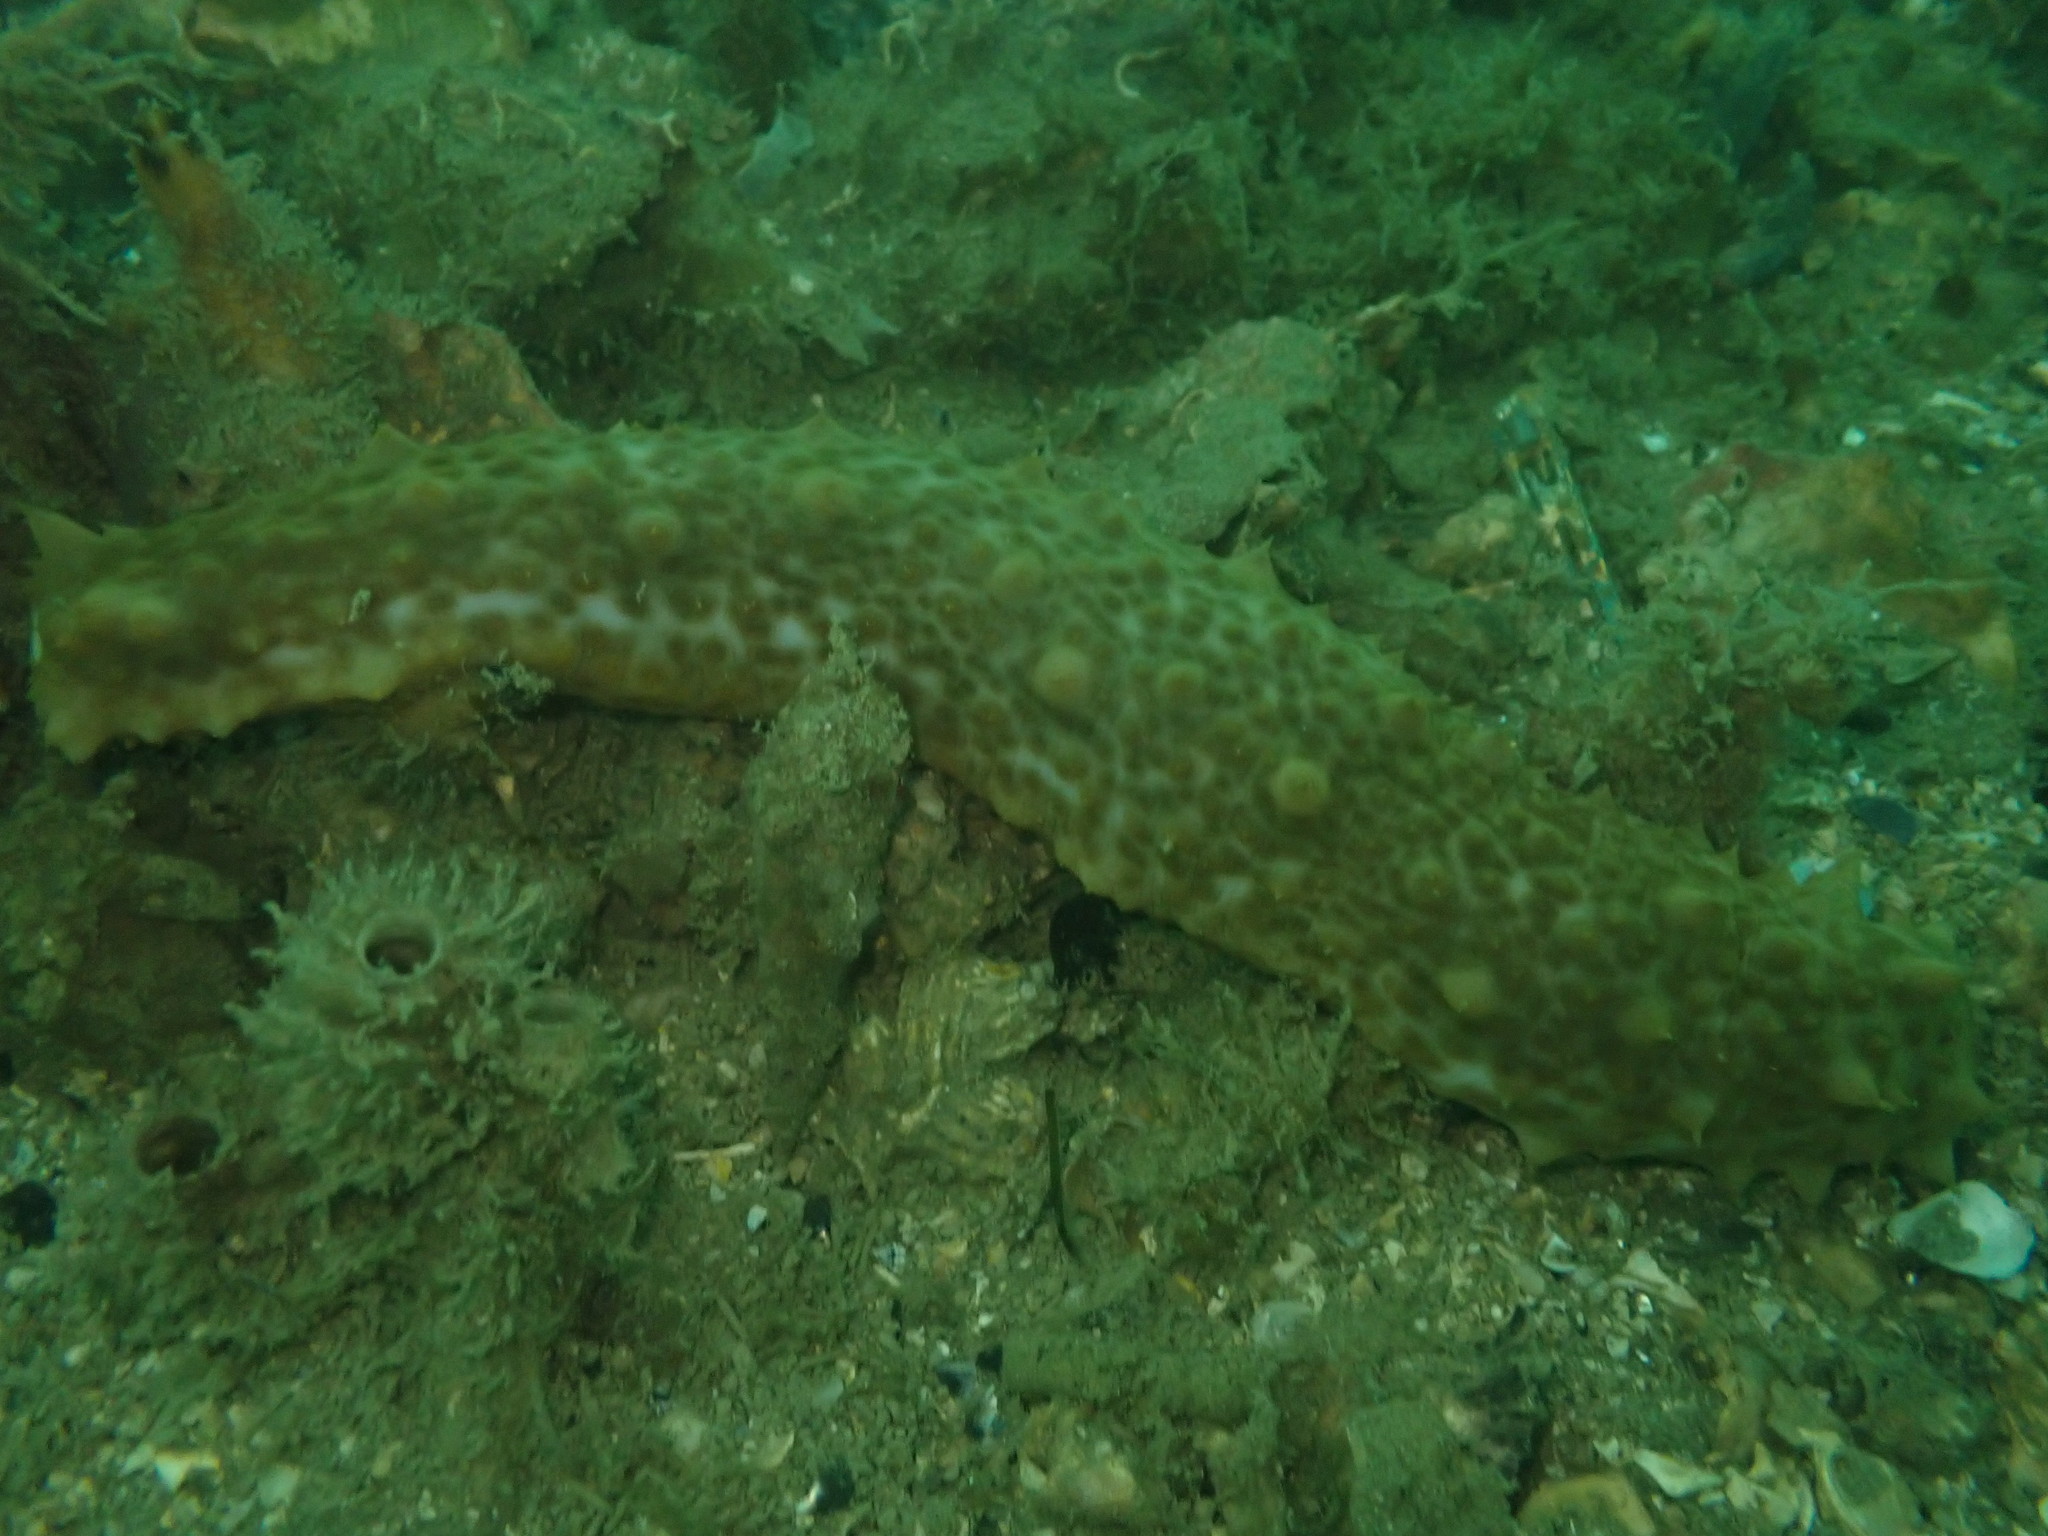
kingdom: Animalia
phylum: Echinodermata
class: Holothuroidea
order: Synallactida
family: Stichopodidae
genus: Australostichopus
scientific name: Australostichopus mollis
